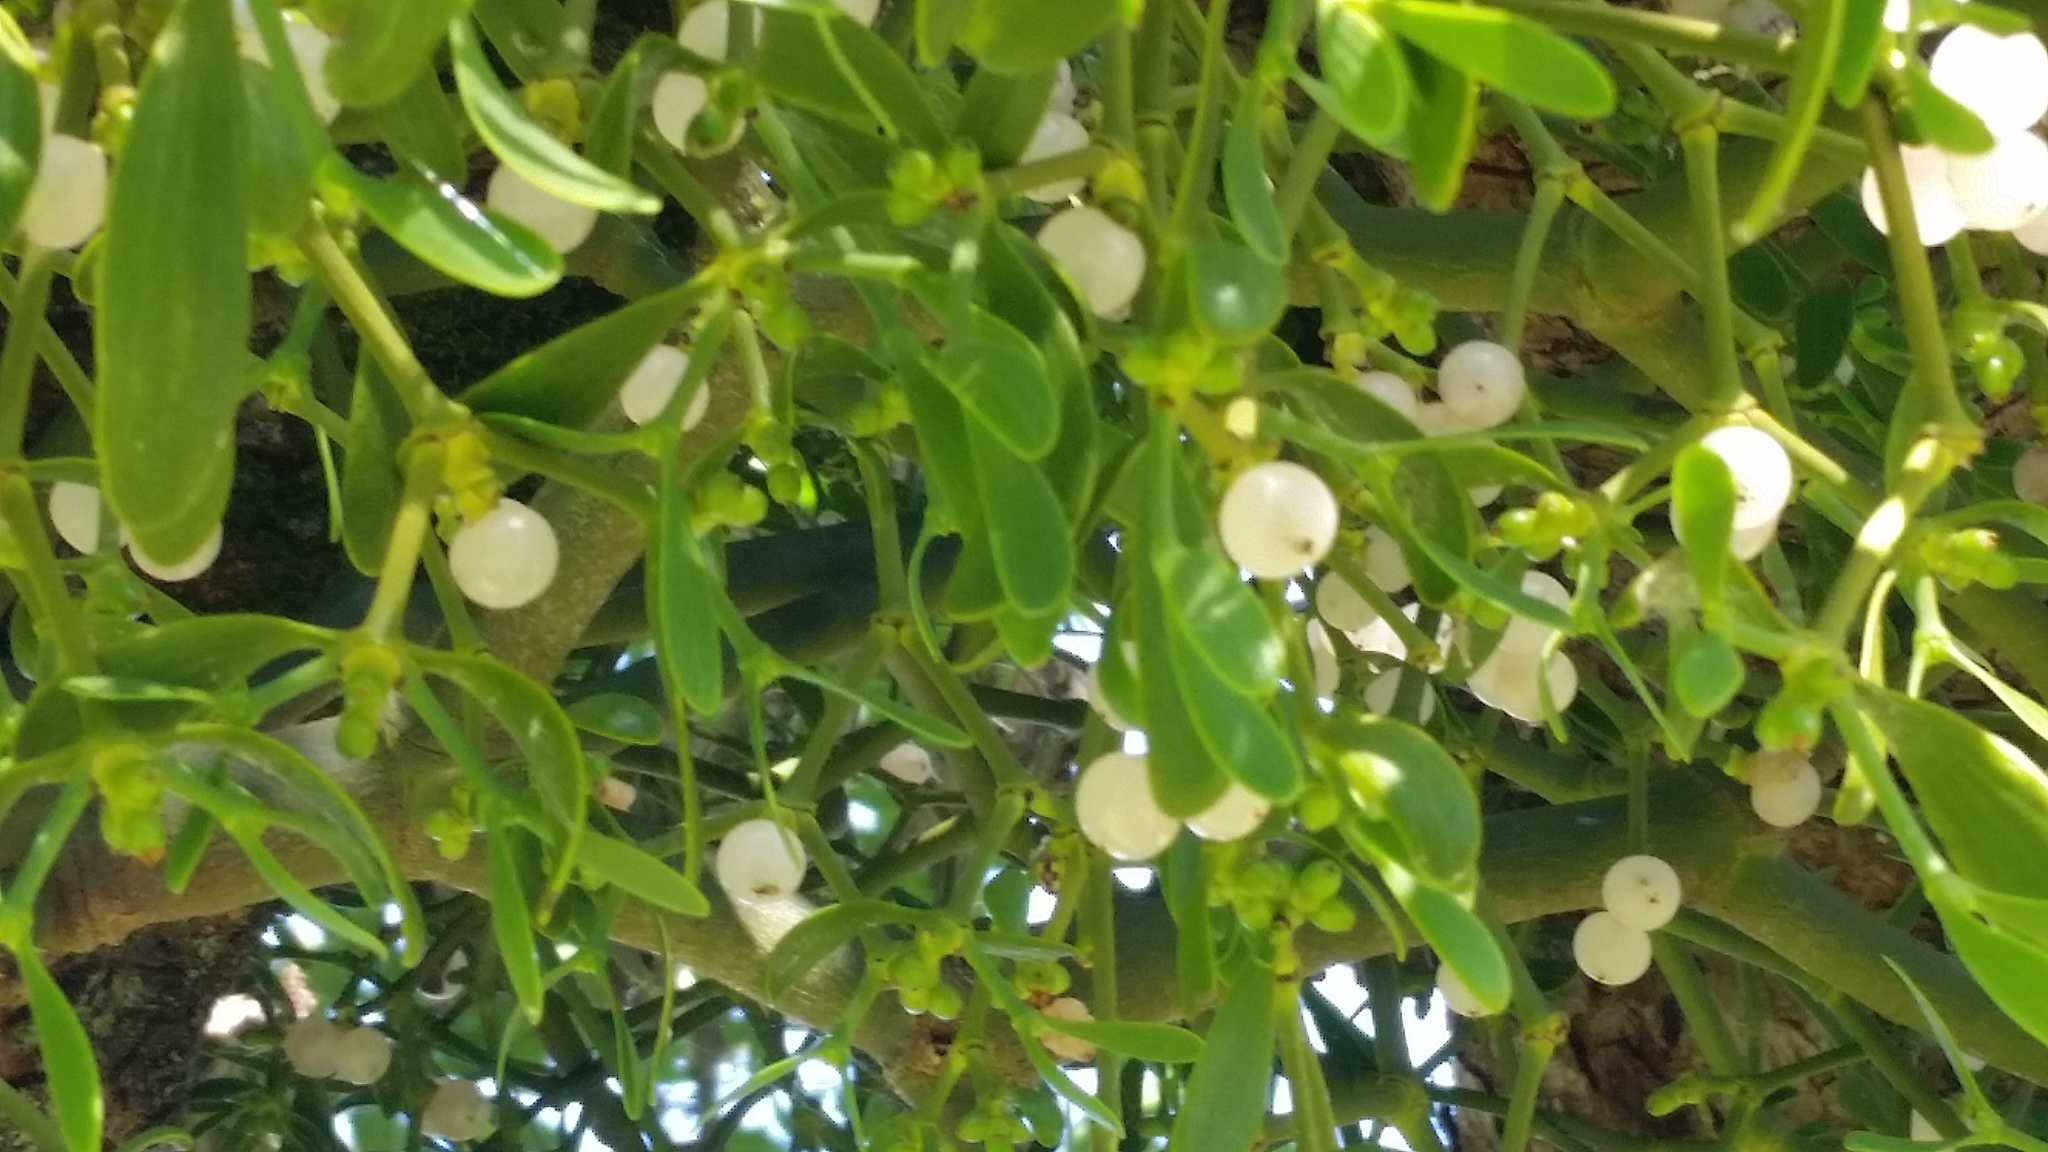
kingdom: Plantae
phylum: Tracheophyta
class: Magnoliopsida
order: Santalales
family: Viscaceae
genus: Phoradendron
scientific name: Phoradendron leucarpum
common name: Pacific mistletoe
